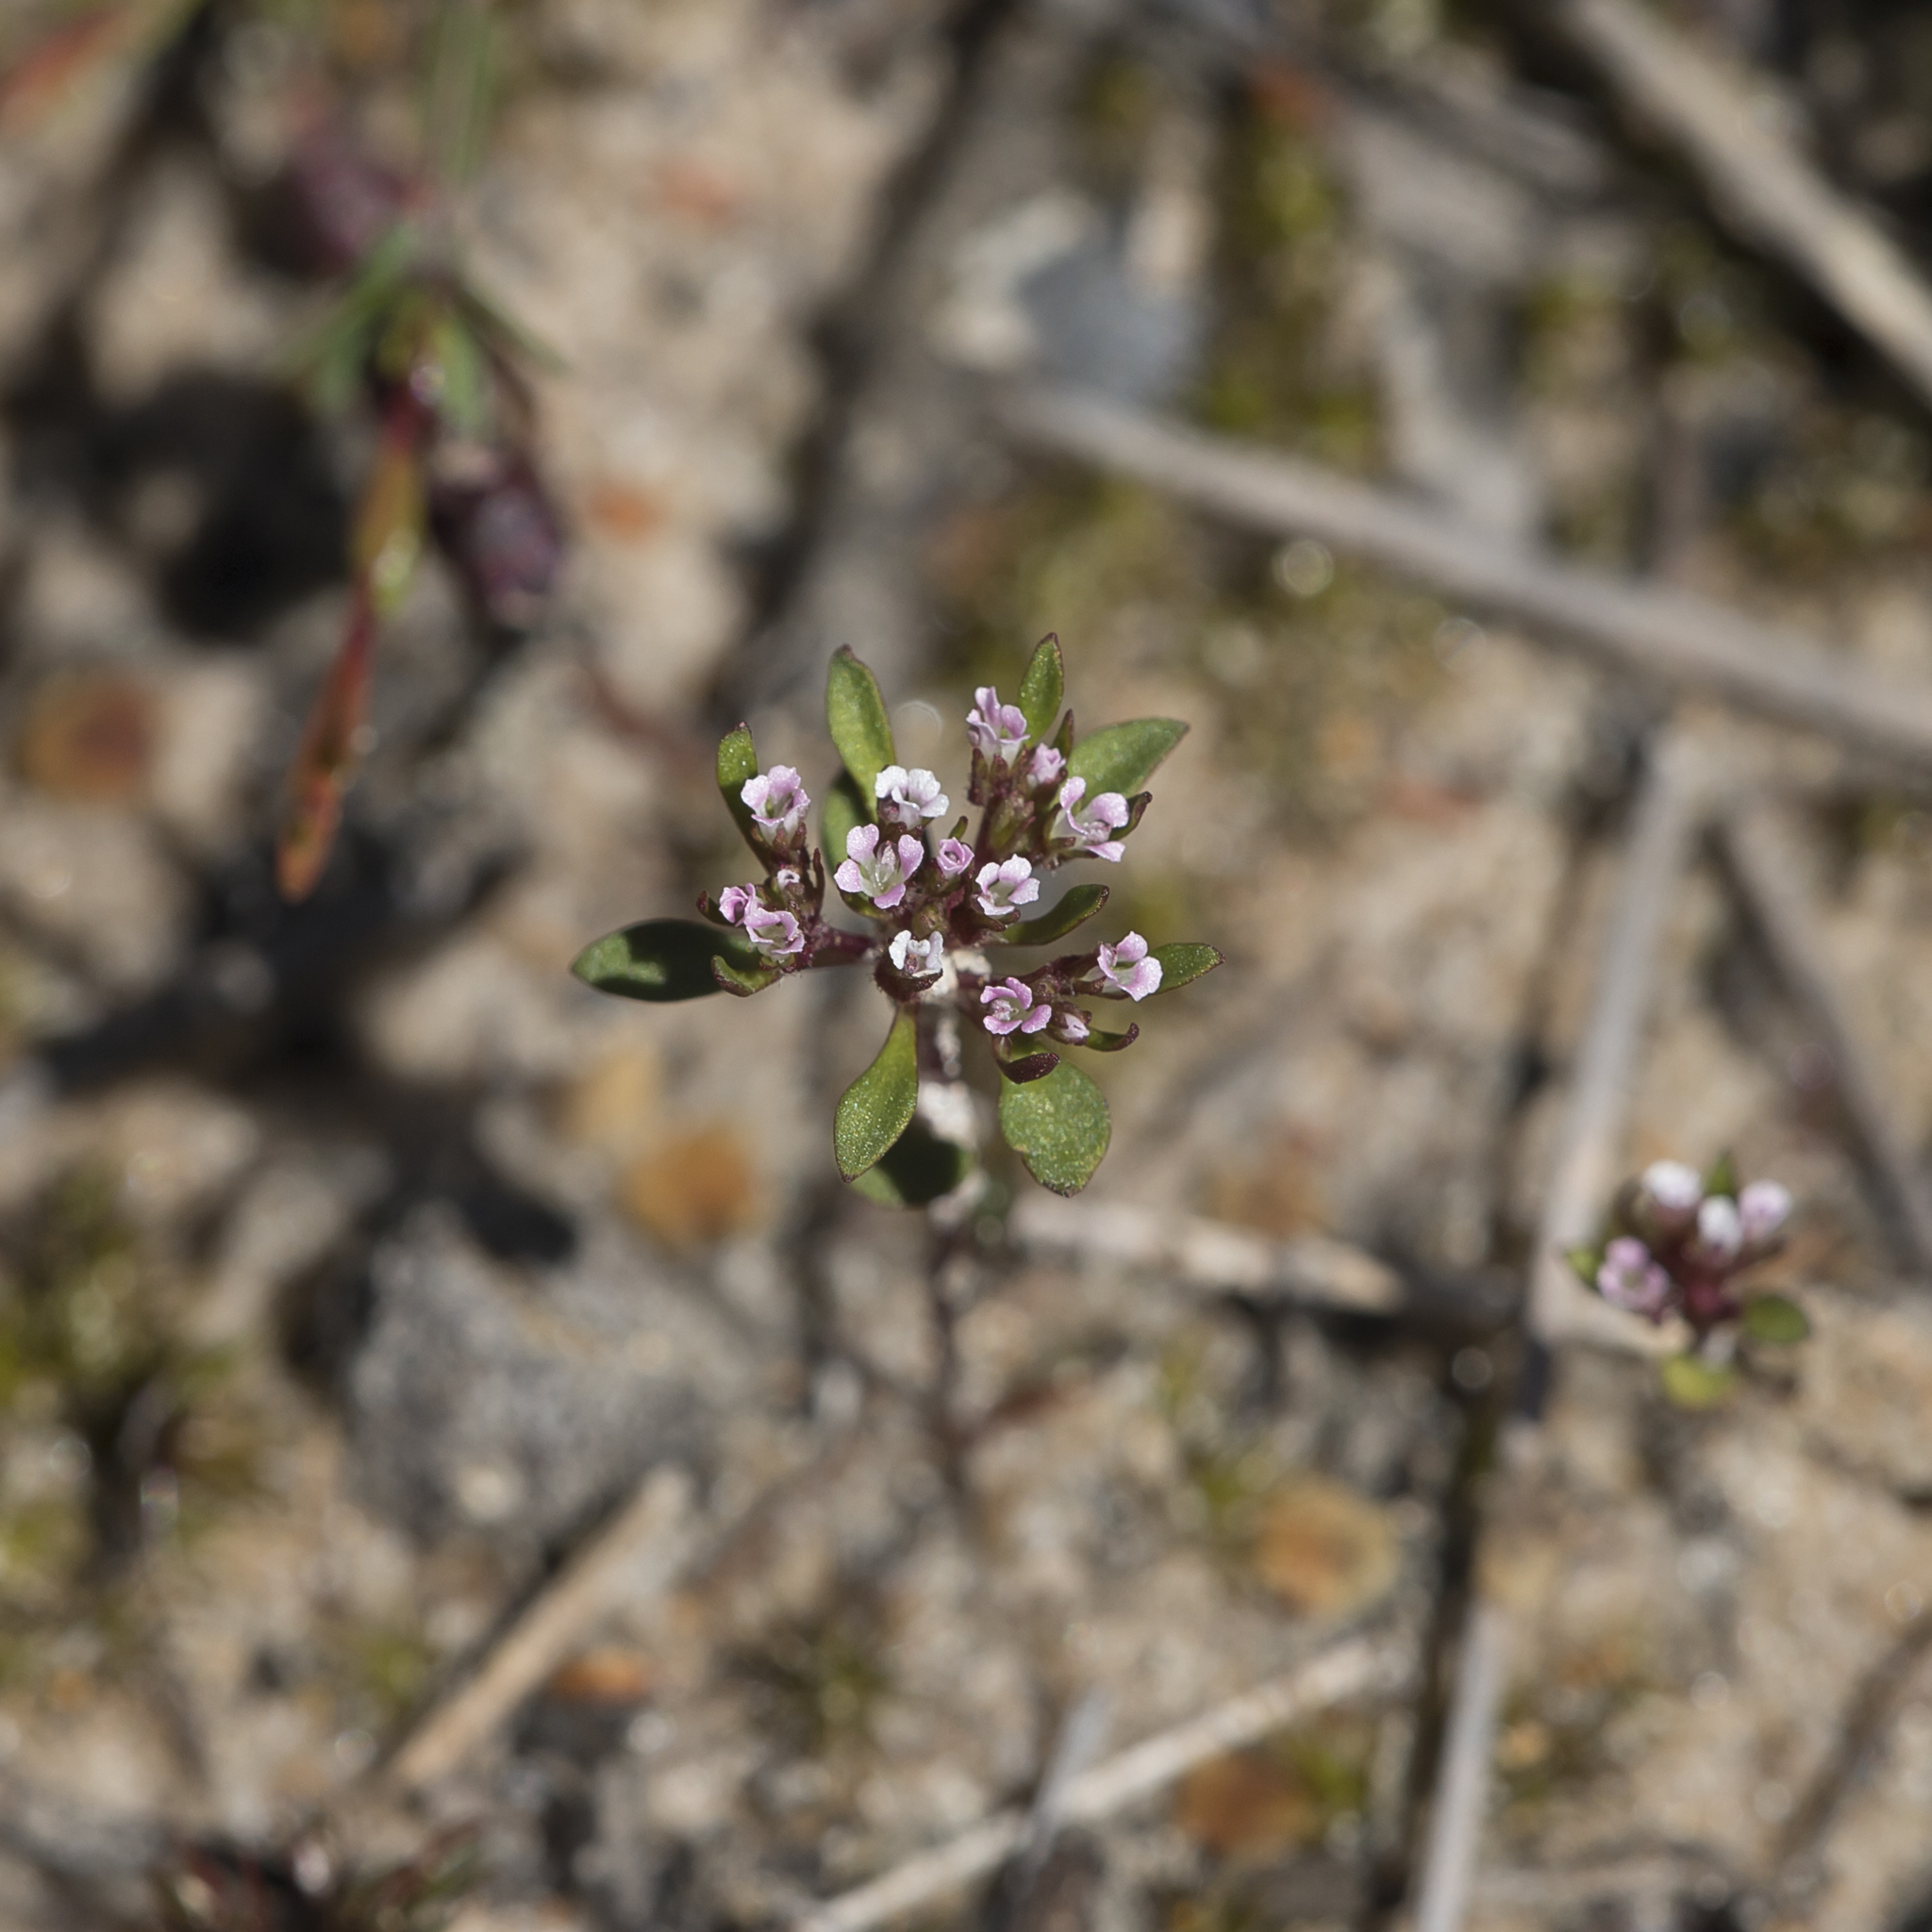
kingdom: Plantae
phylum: Tracheophyta
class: Magnoliopsida
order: Asterales
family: Stylidiaceae
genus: Levenhookia
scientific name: Levenhookia pusilla
